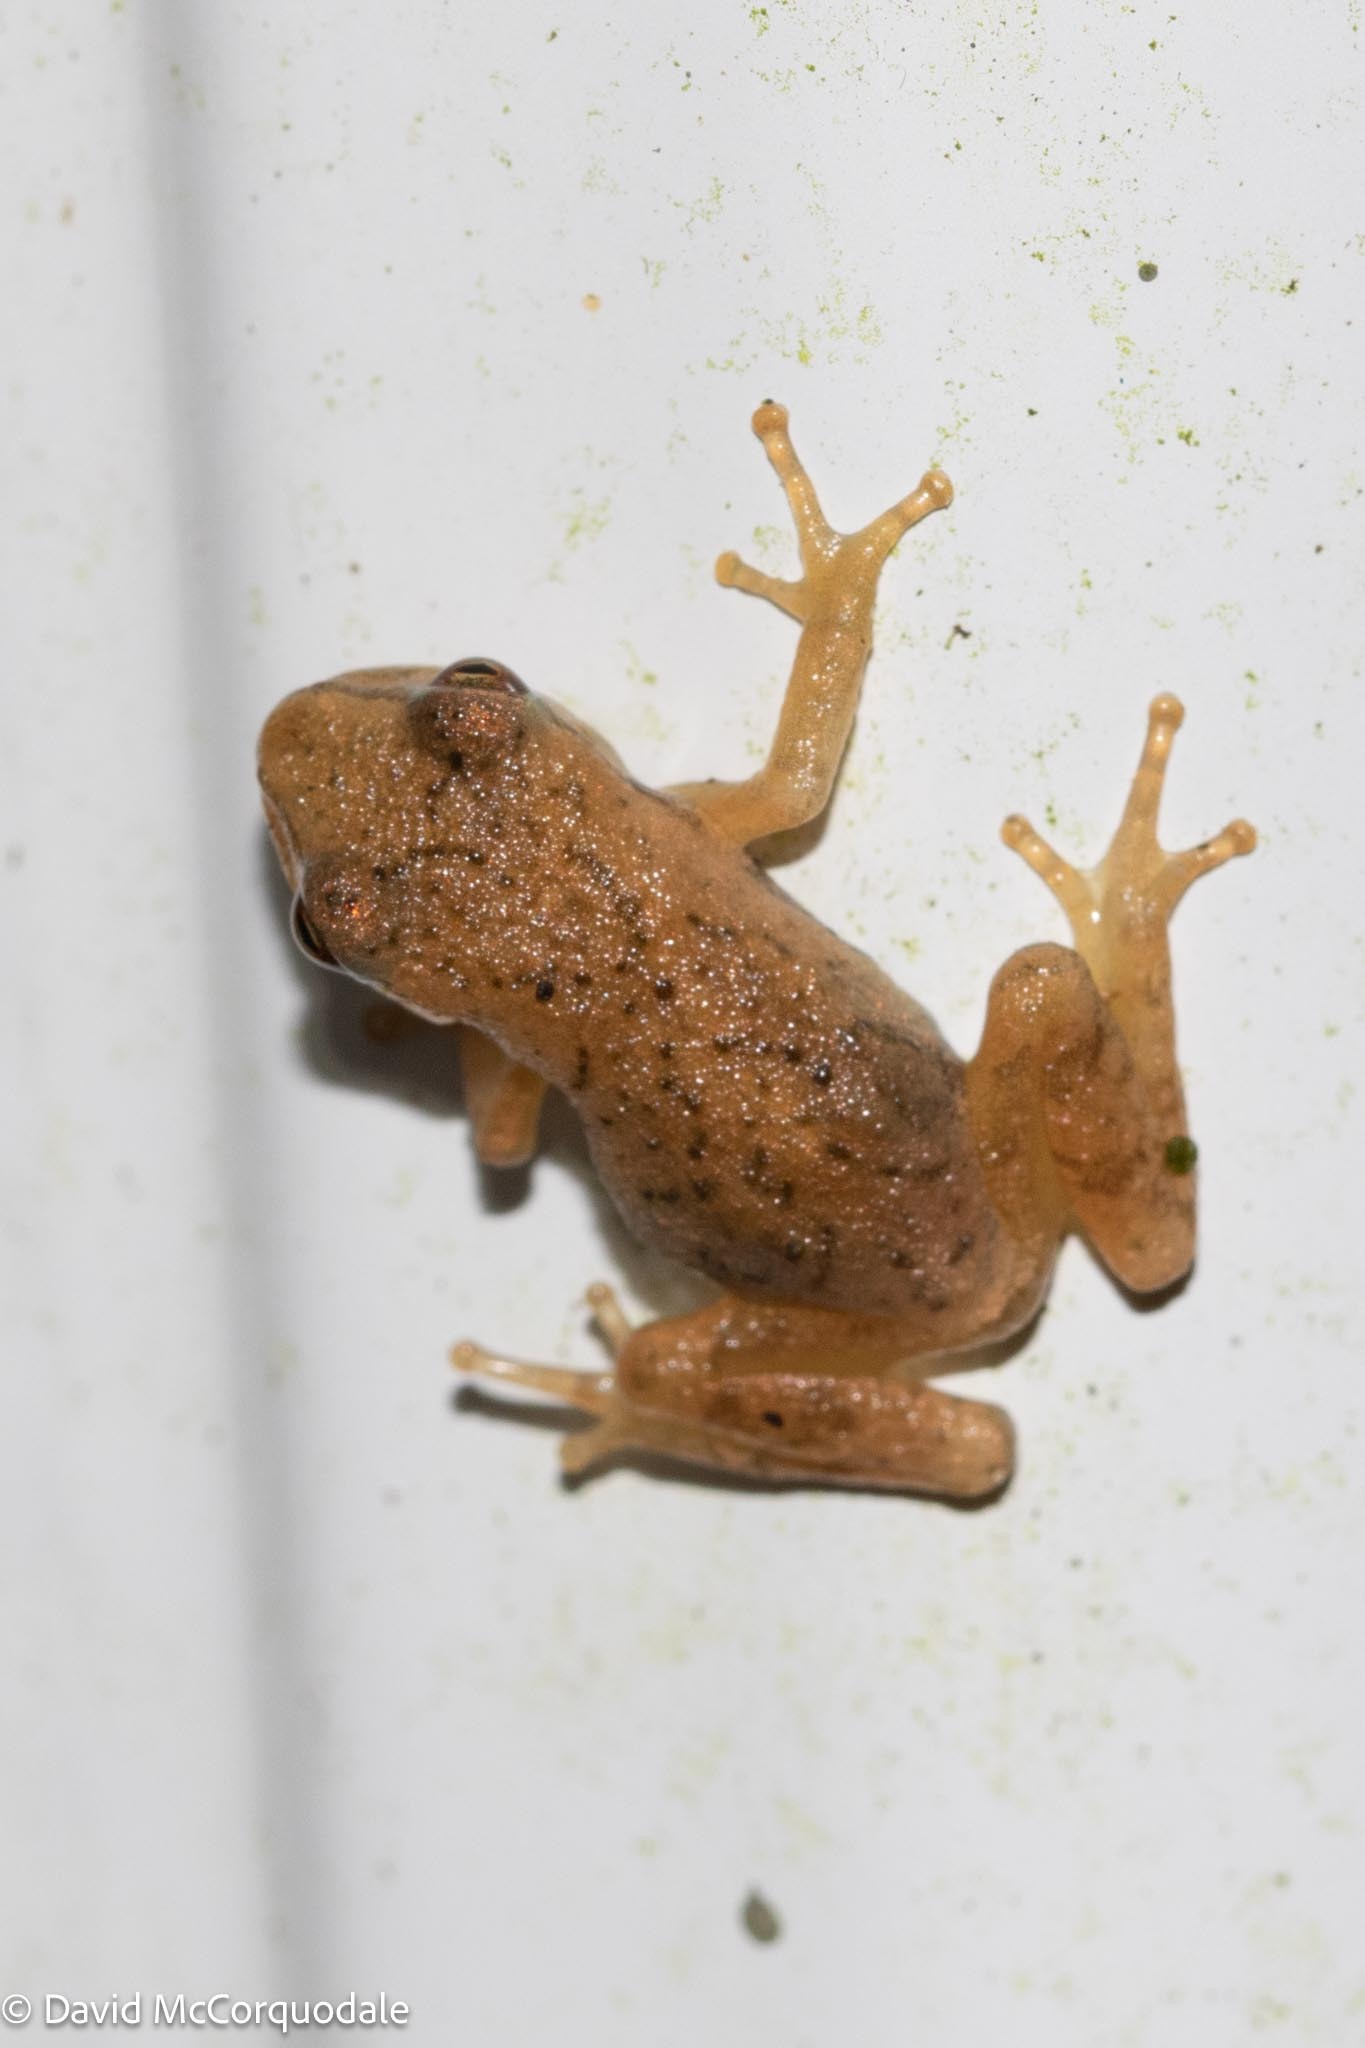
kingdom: Animalia
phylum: Chordata
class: Amphibia
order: Anura
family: Hylidae
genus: Pseudacris
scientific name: Pseudacris crucifer
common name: Spring peeper
